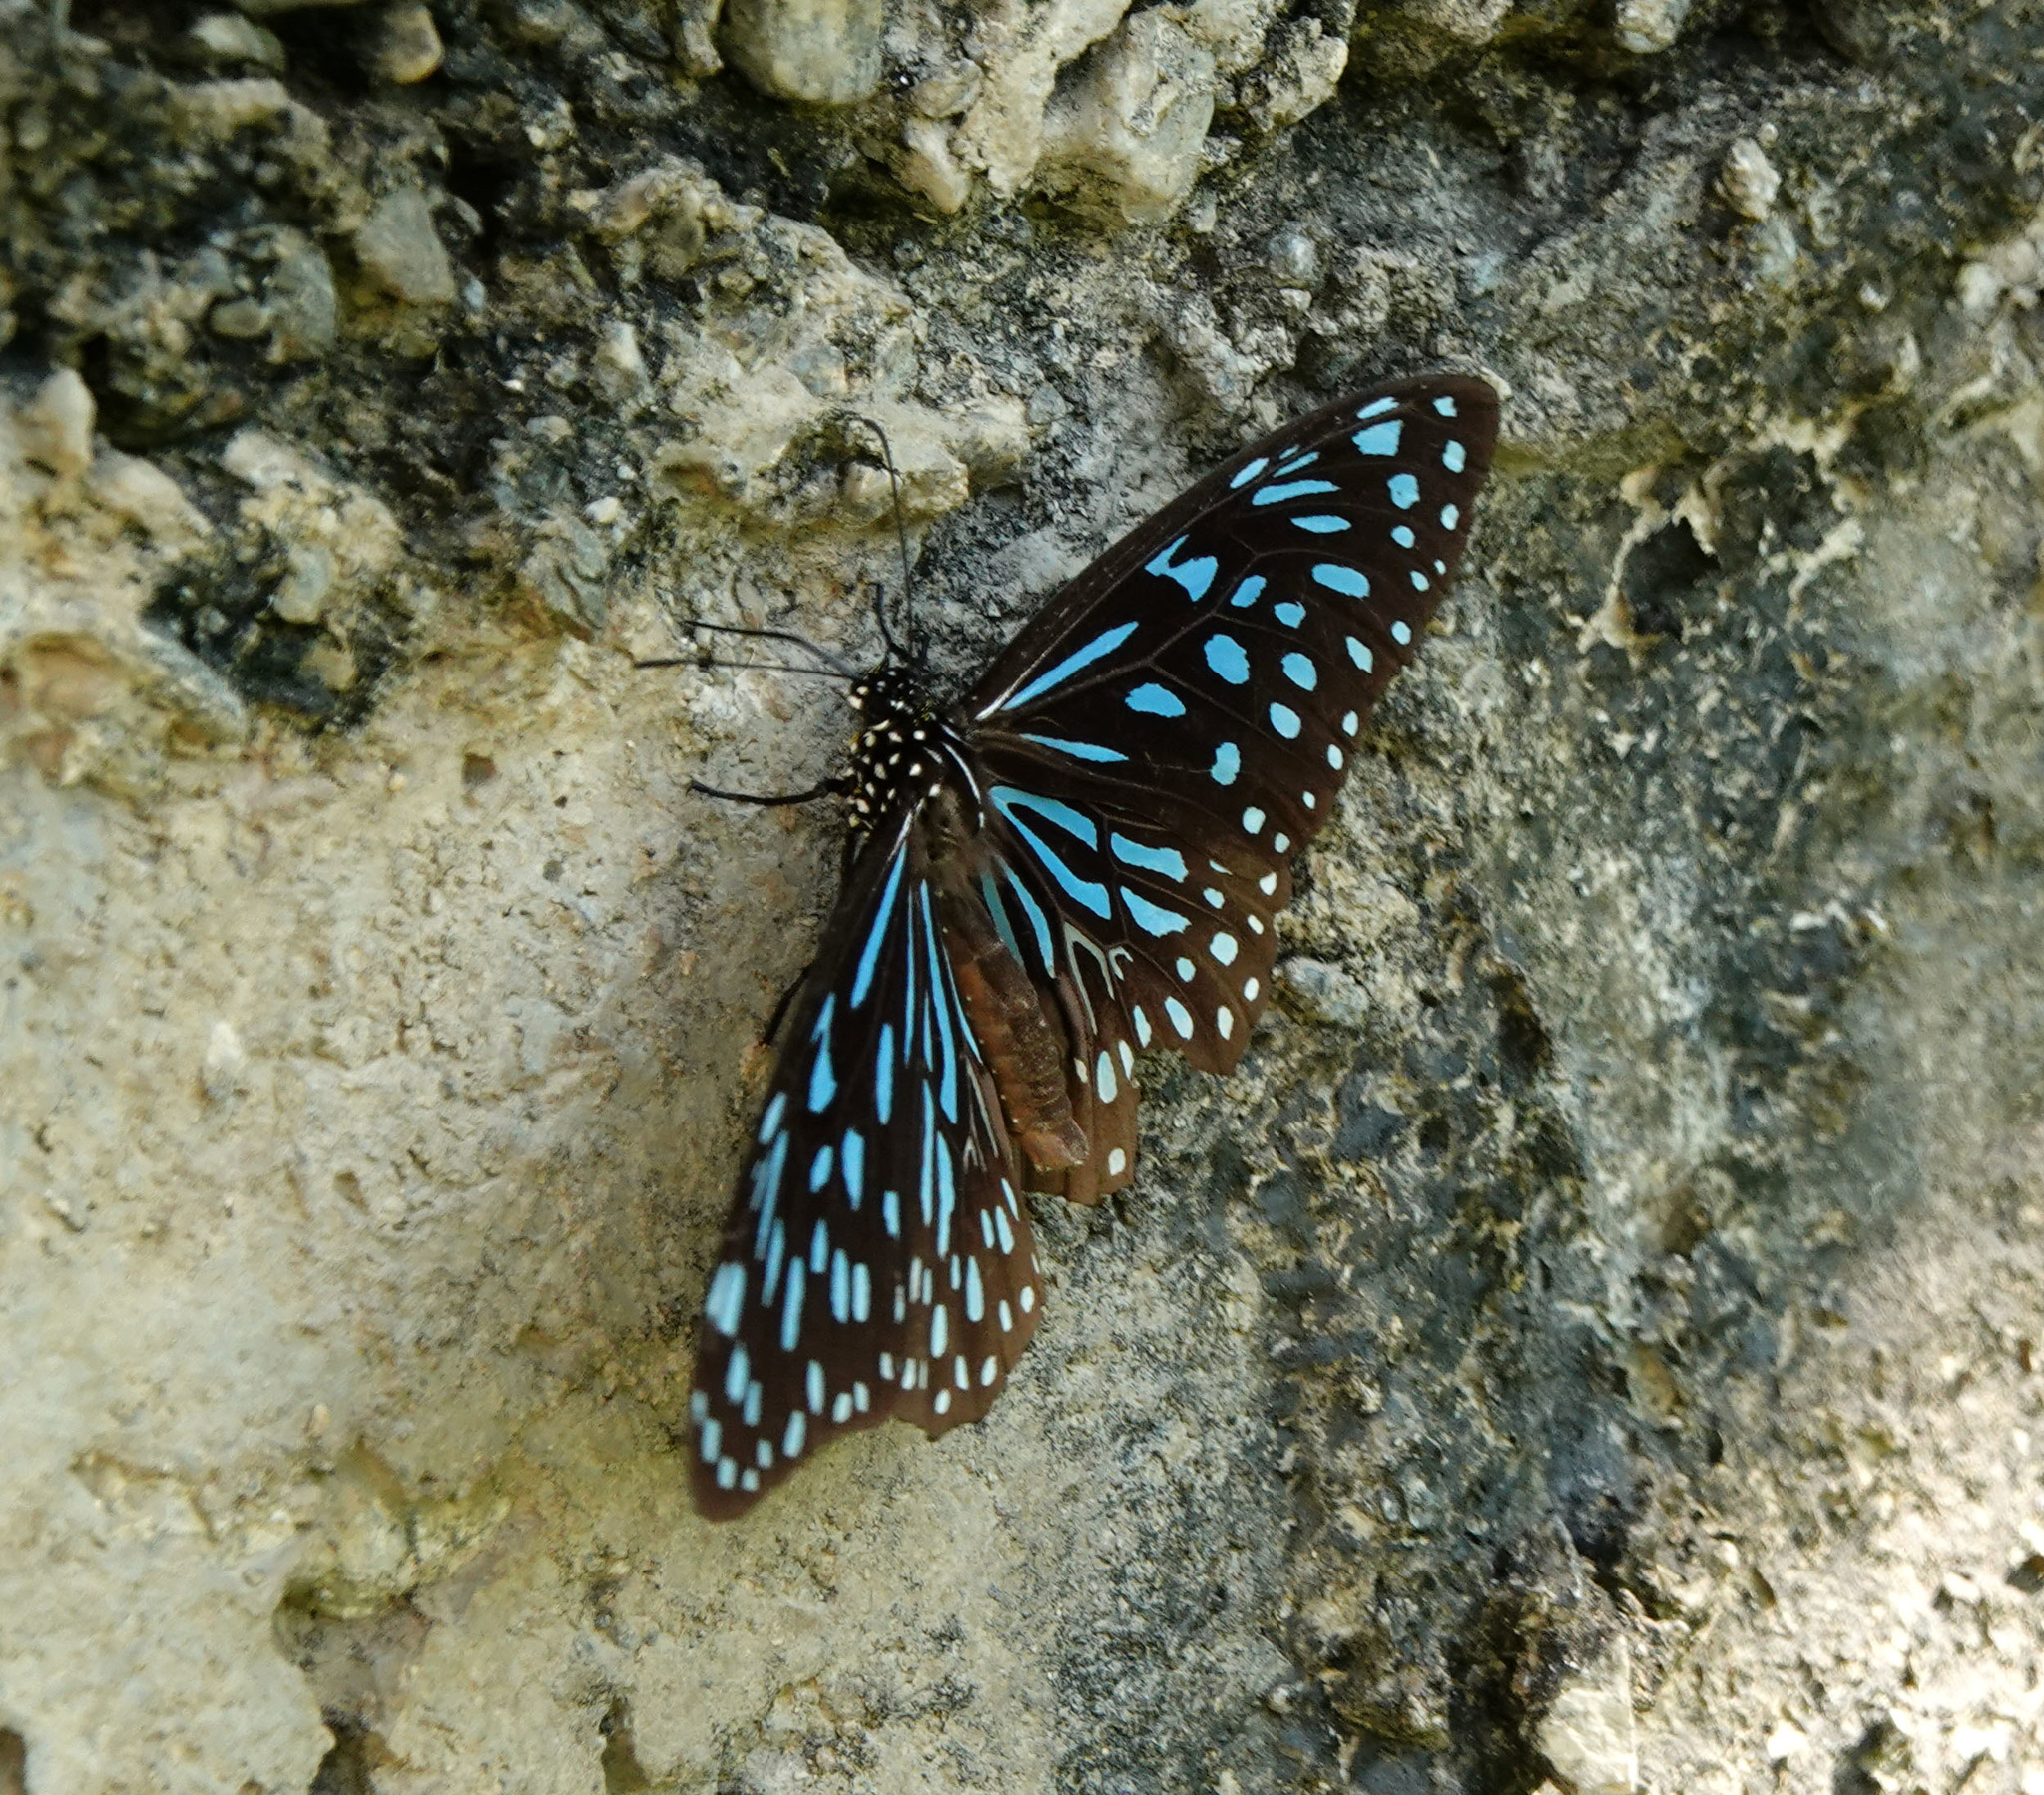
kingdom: Animalia
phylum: Arthropoda
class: Insecta
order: Lepidoptera
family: Nymphalidae
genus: Tirumala
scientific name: Tirumala septentrionis
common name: Dark blue tiger butterfly
